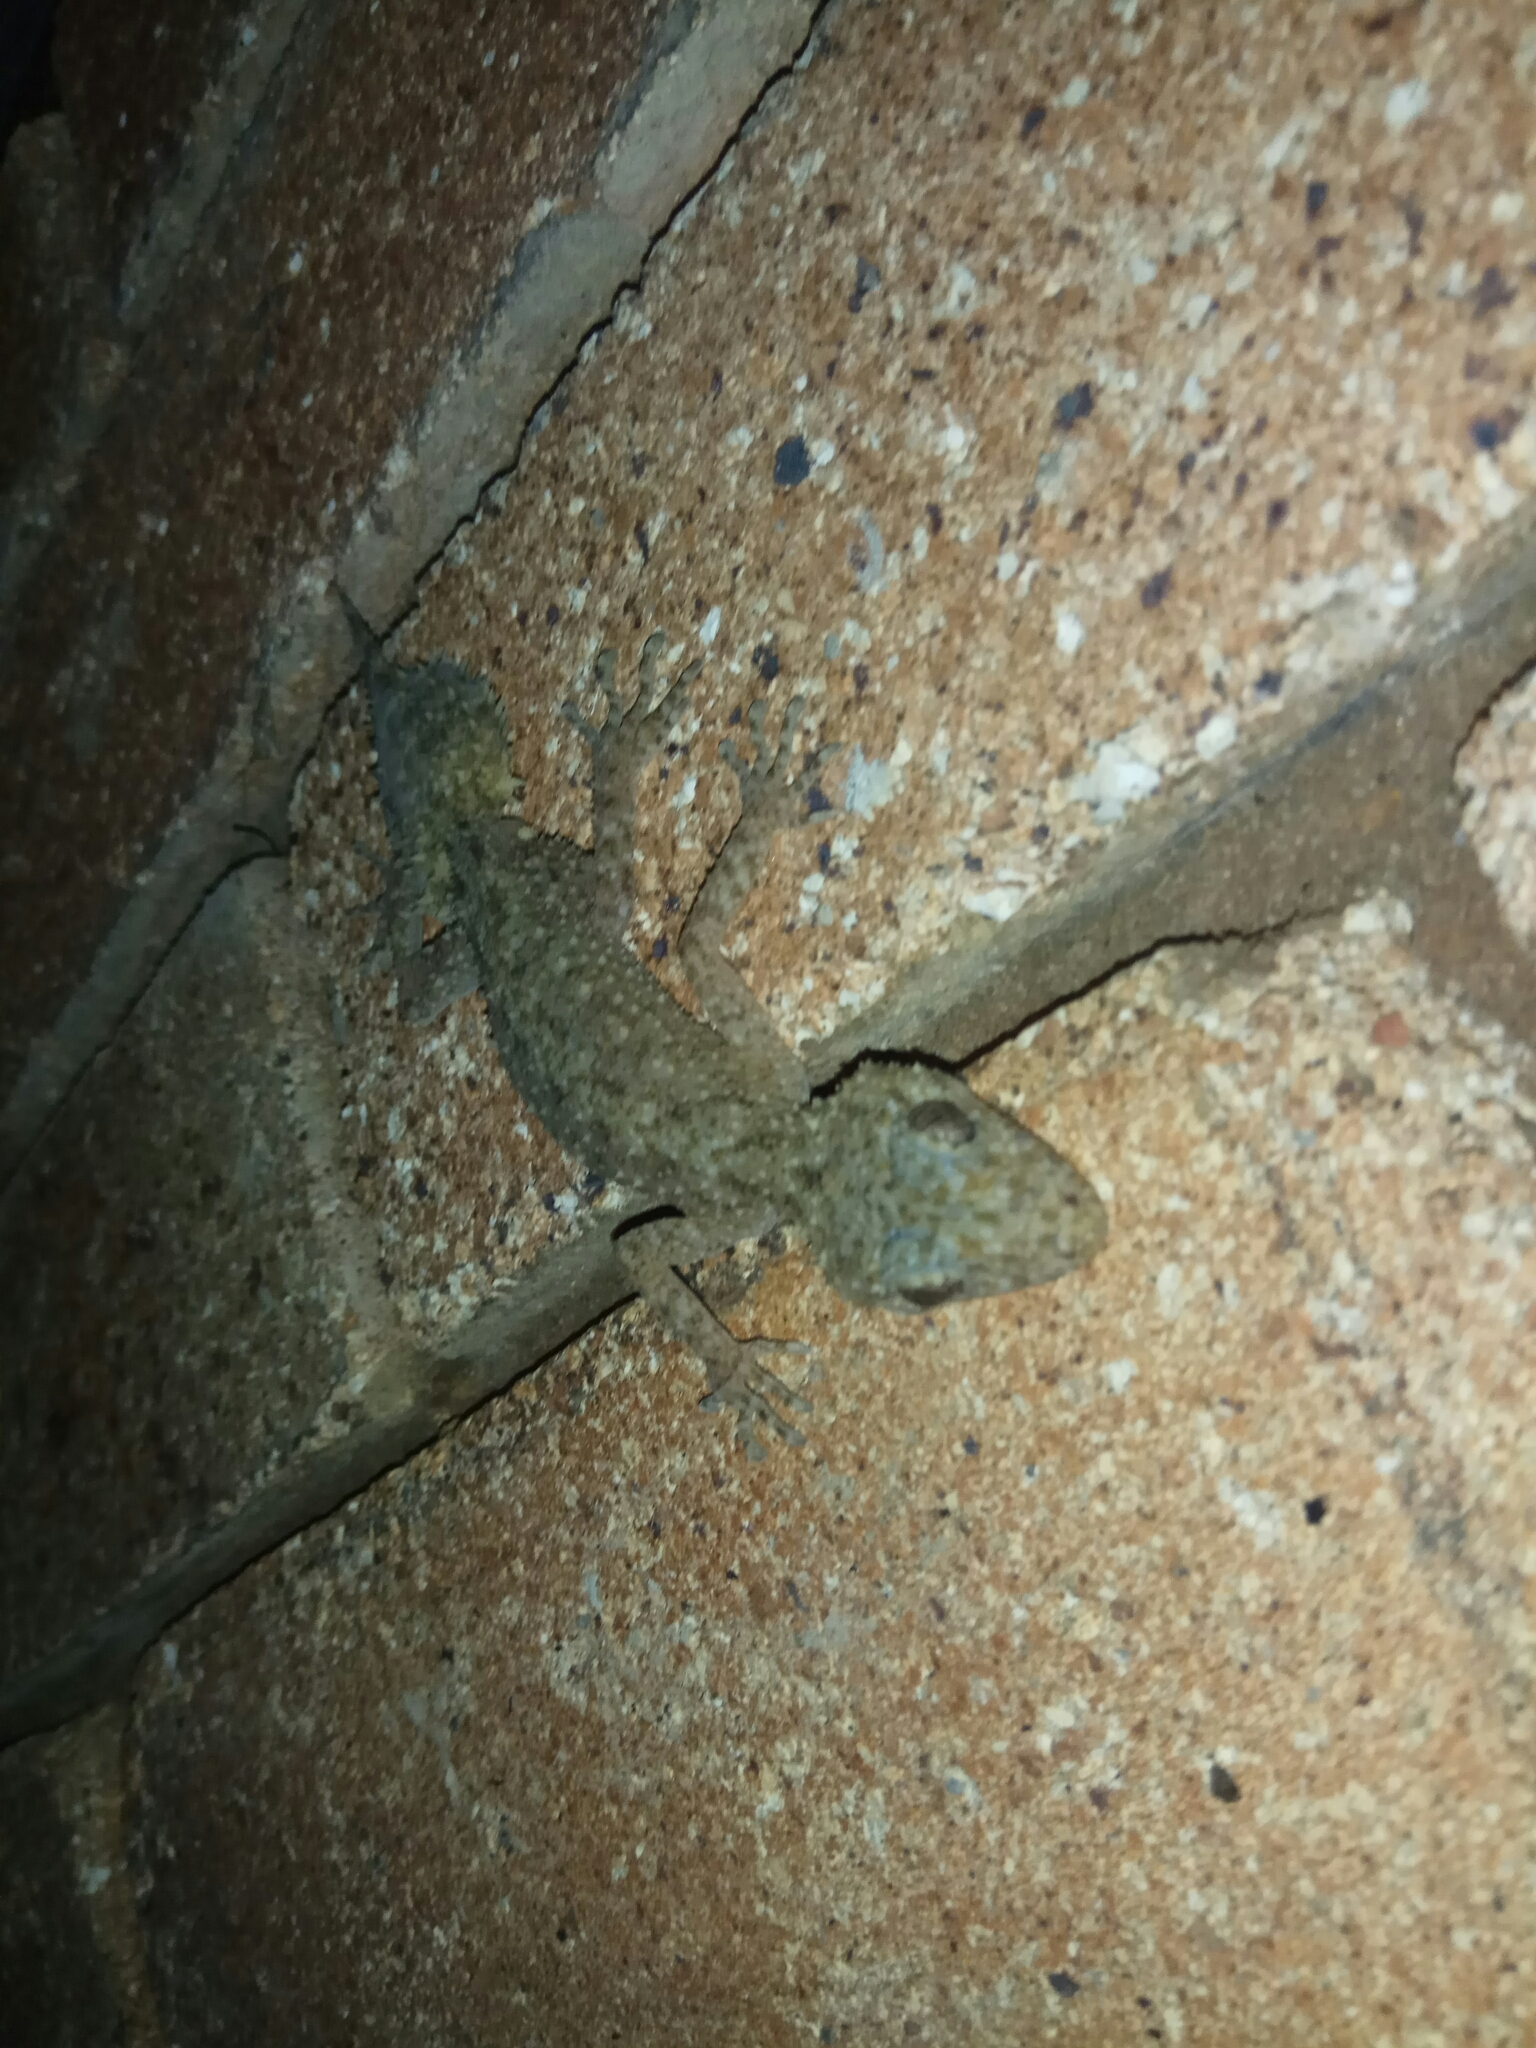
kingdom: Animalia
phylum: Chordata
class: Squamata
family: Carphodactylidae
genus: Phyllurus
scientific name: Phyllurus platurus
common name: Broad-tailed gecko
